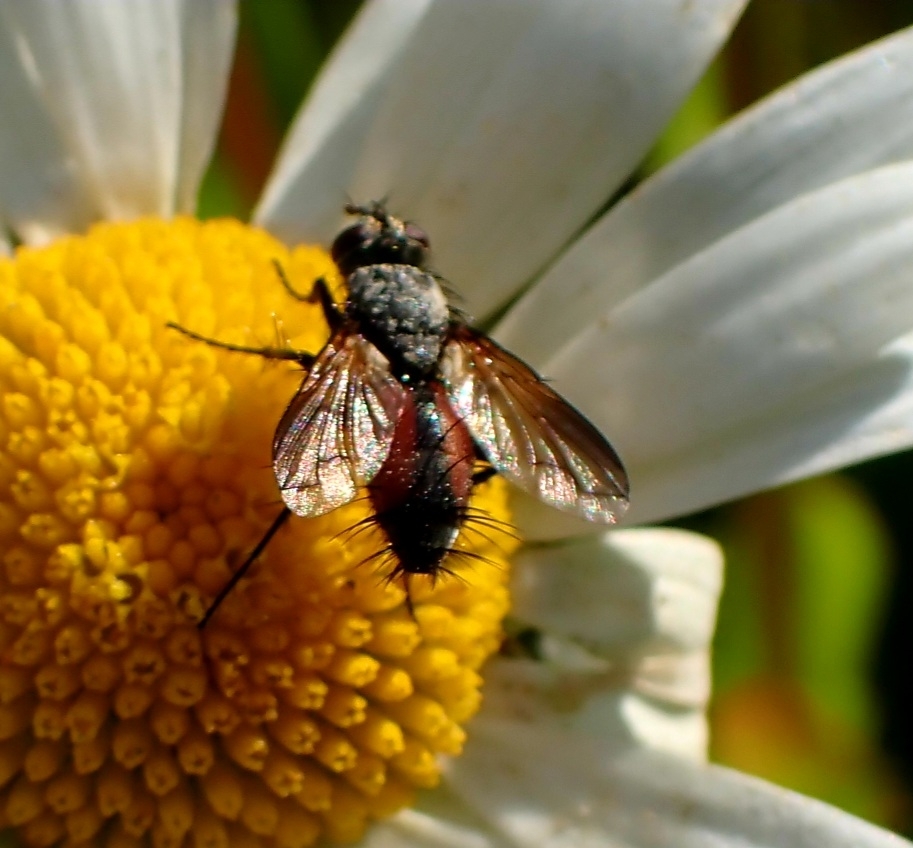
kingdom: Animalia
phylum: Arthropoda
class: Insecta
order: Diptera
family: Tachinidae
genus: Eriothrix
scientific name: Eriothrix rufomaculatus
